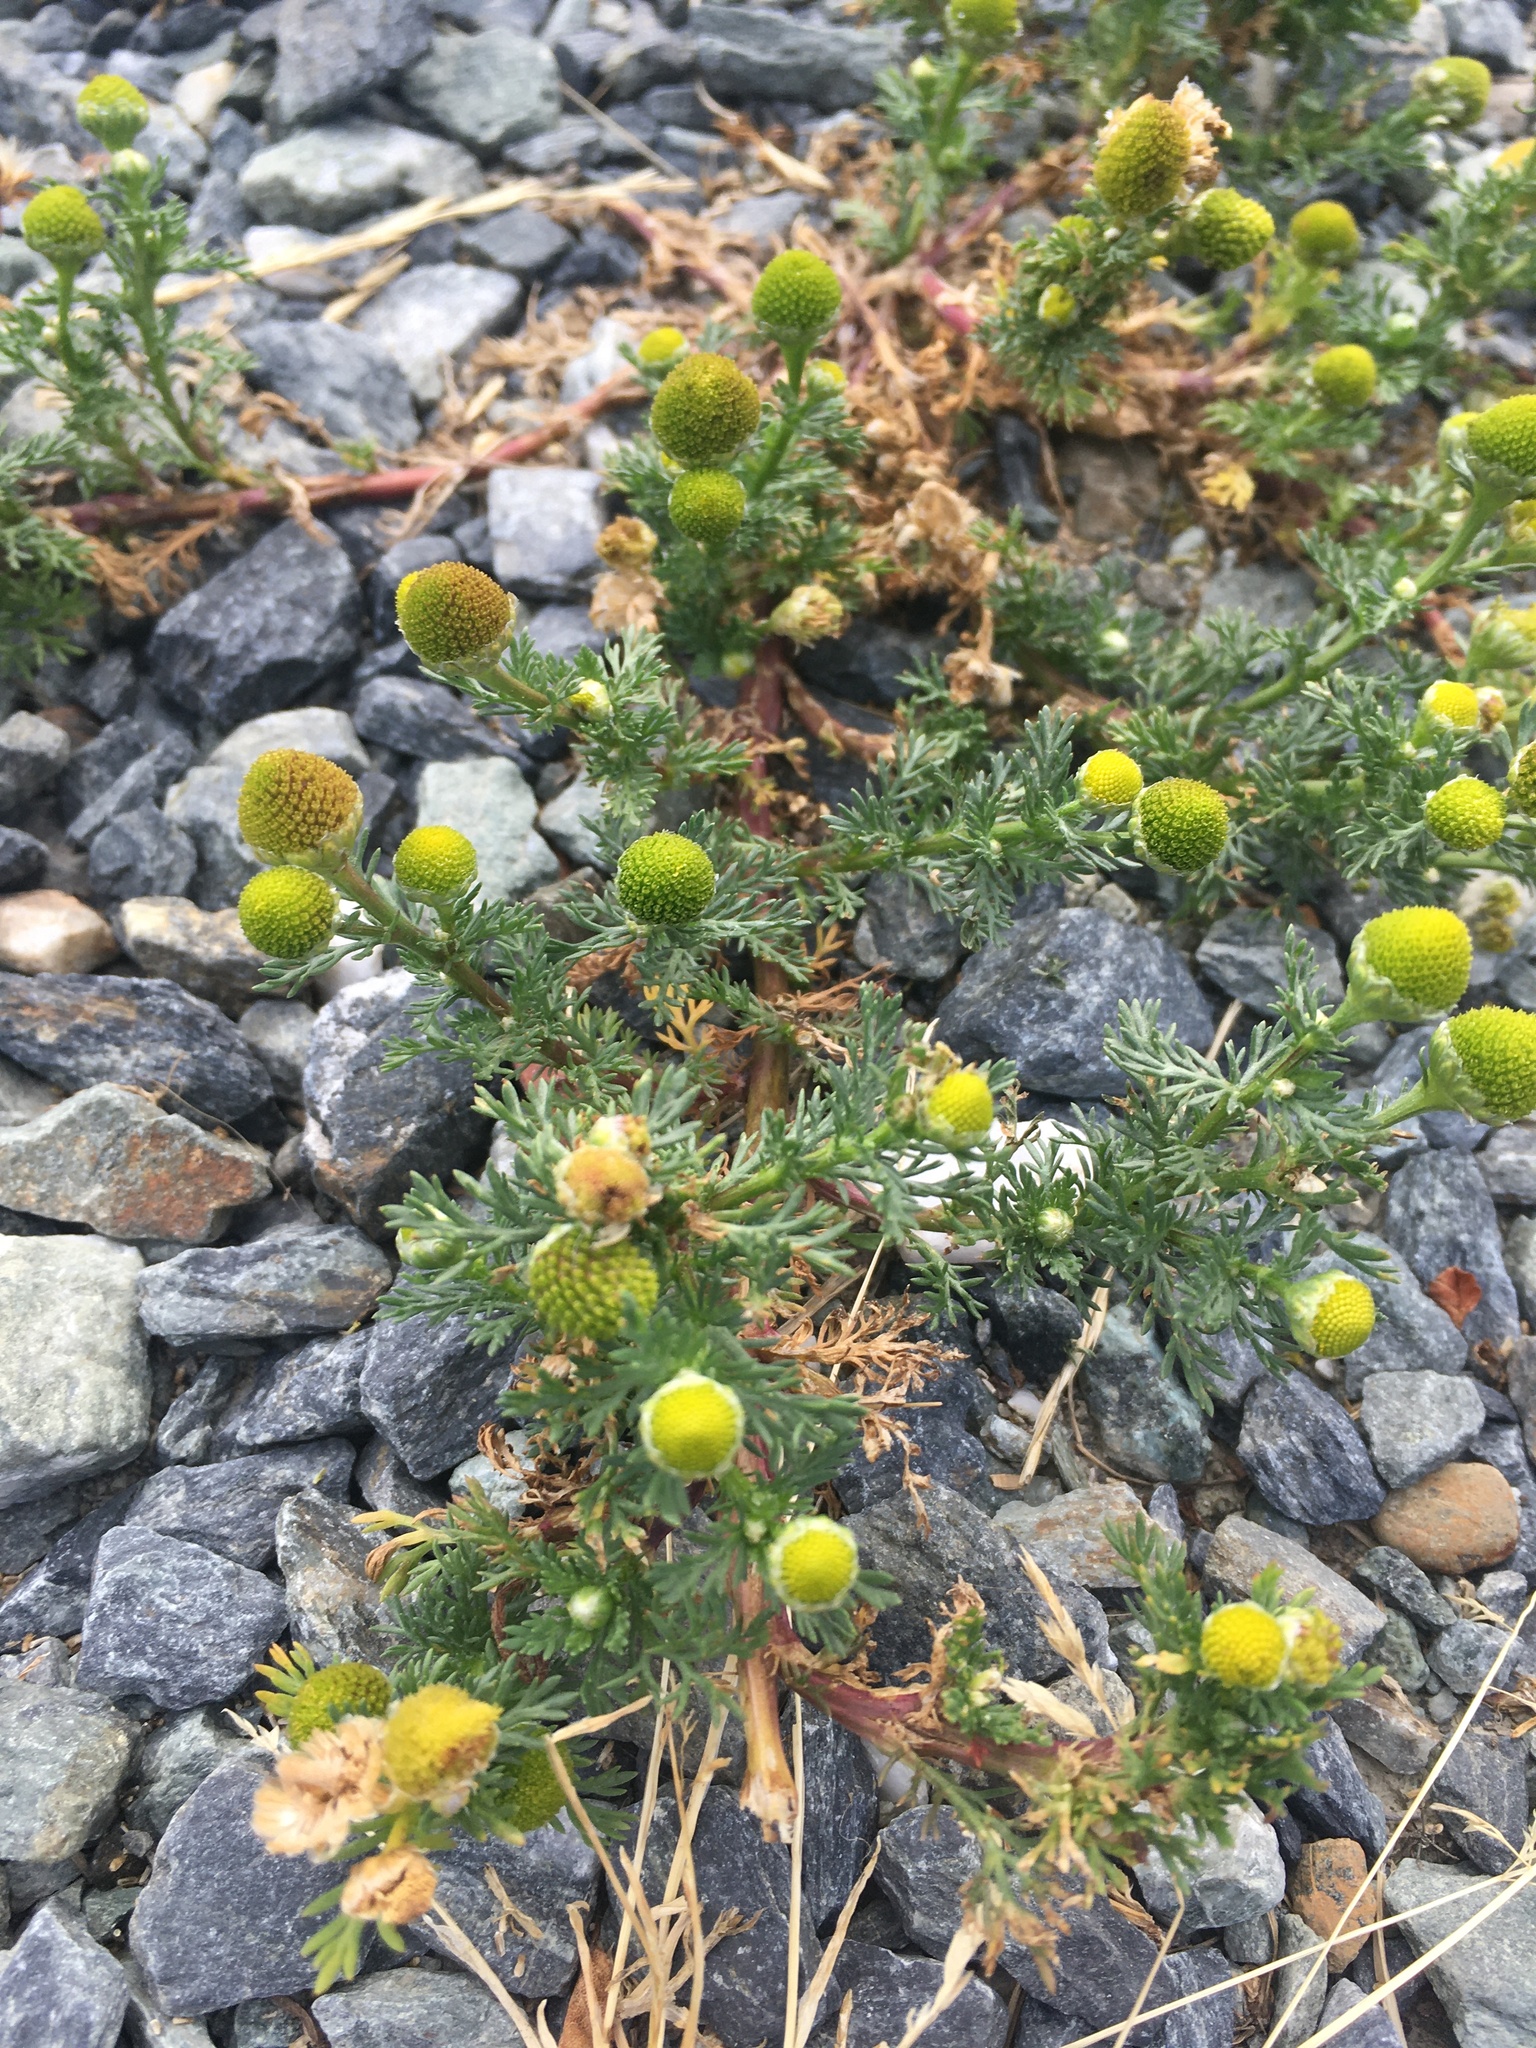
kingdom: Plantae
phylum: Tracheophyta
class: Magnoliopsida
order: Asterales
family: Asteraceae
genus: Matricaria
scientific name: Matricaria discoidea
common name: Disc mayweed
